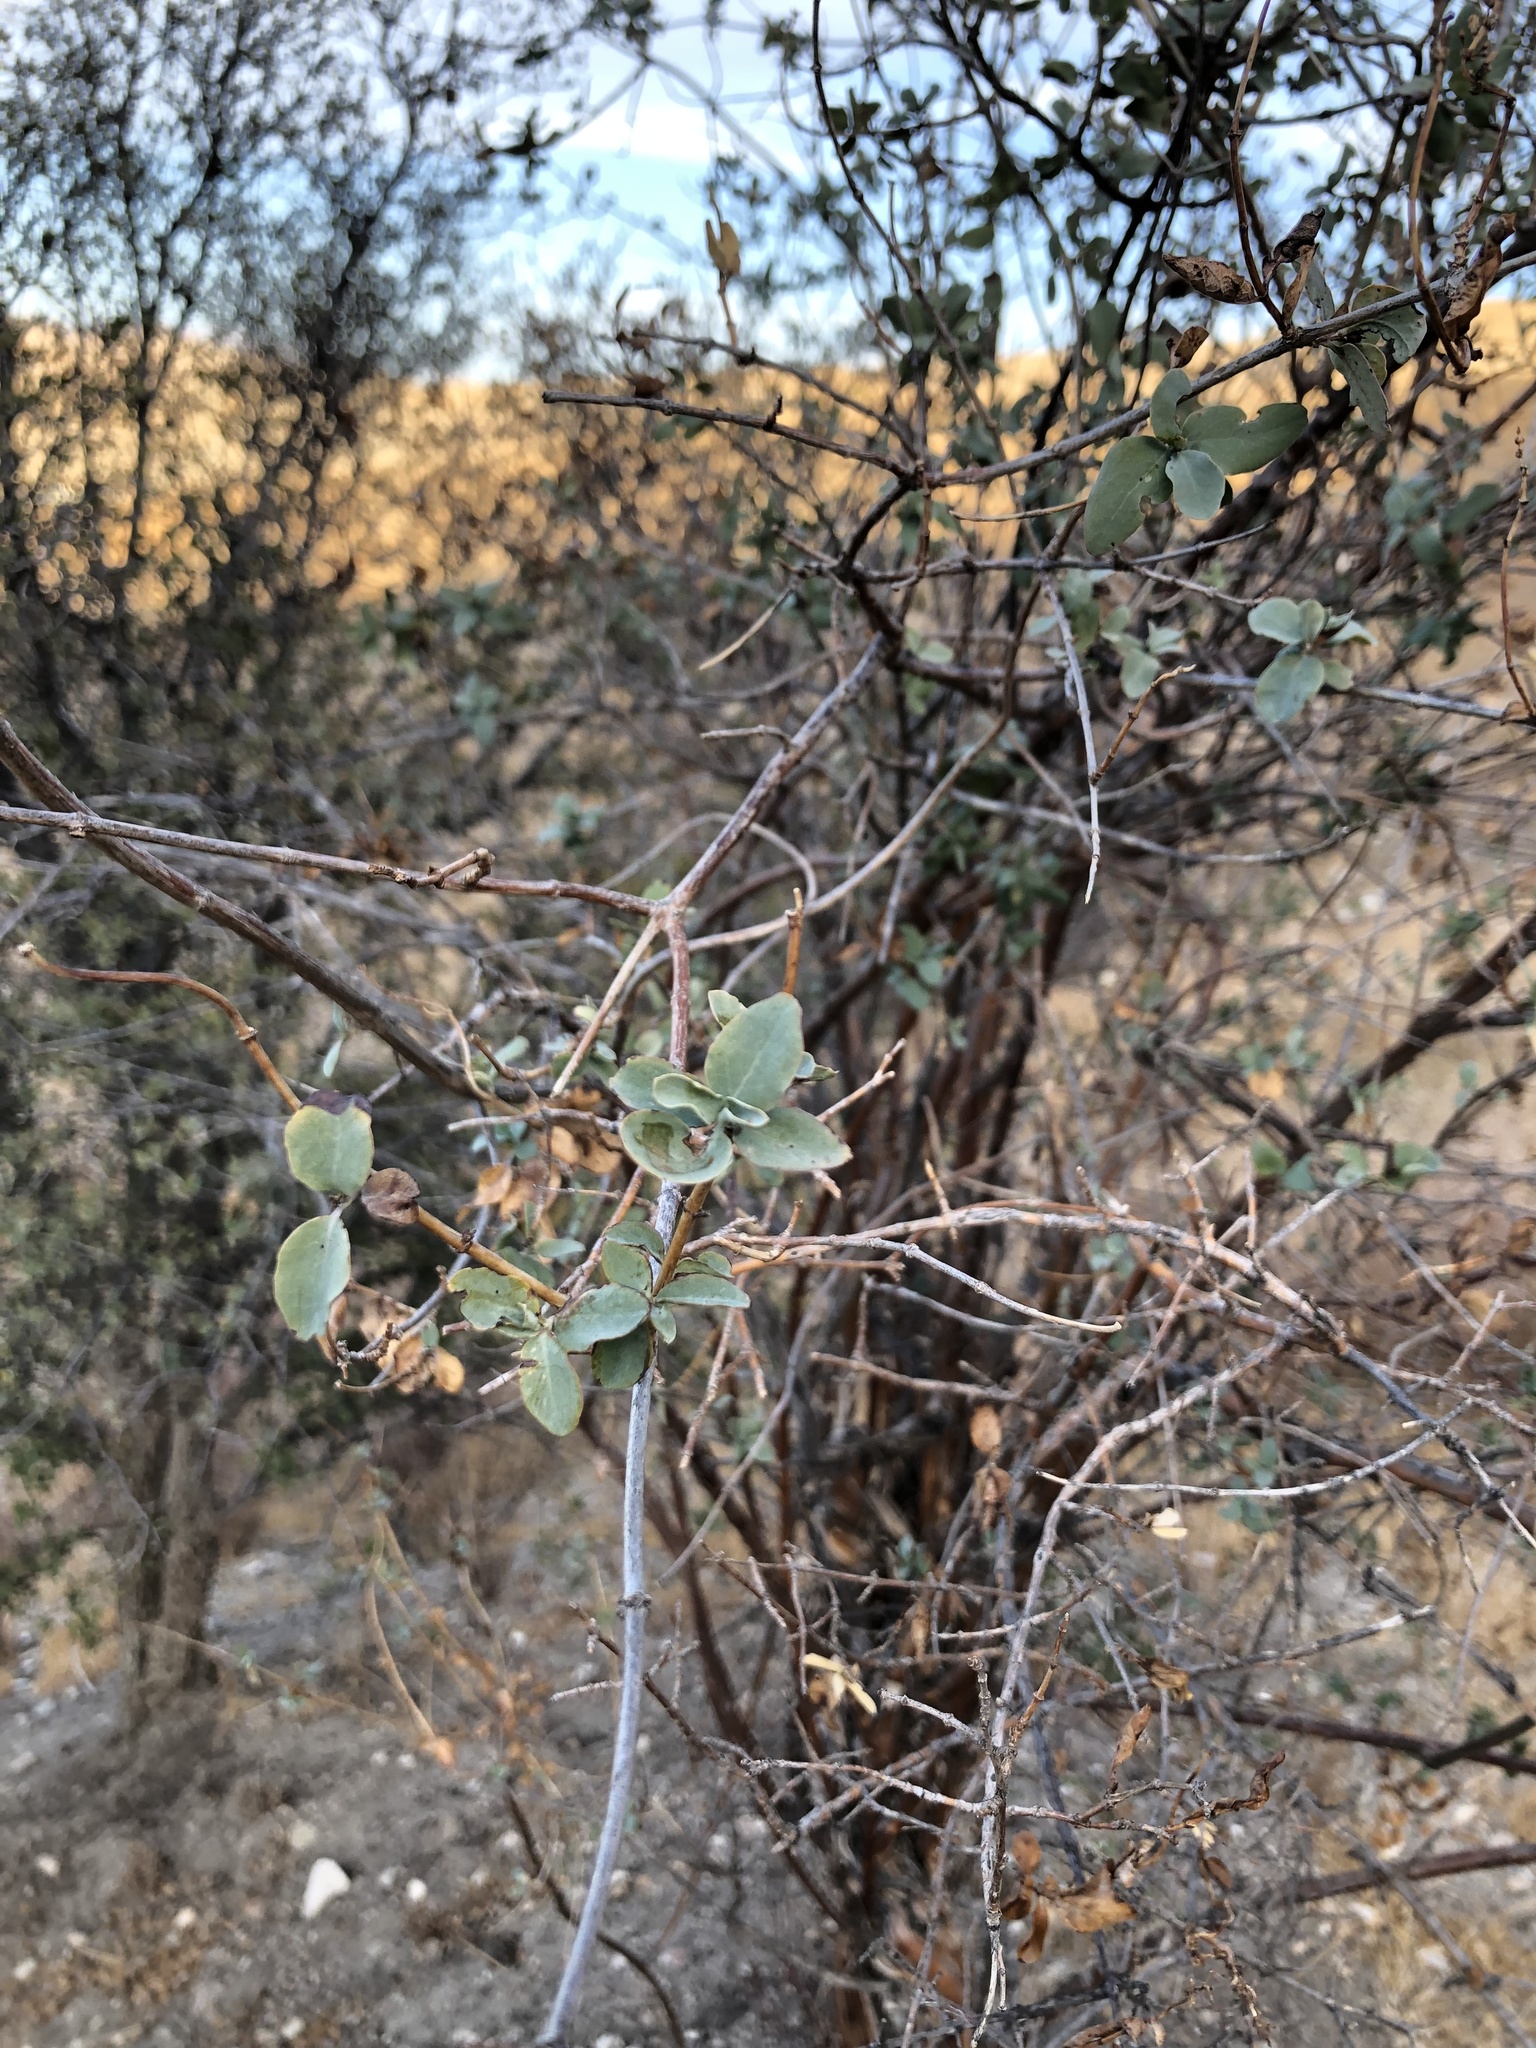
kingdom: Plantae
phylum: Tracheophyta
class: Magnoliopsida
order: Dipsacales
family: Caprifoliaceae
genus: Lonicera
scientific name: Lonicera interrupta
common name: Chaparral honeysuckle
